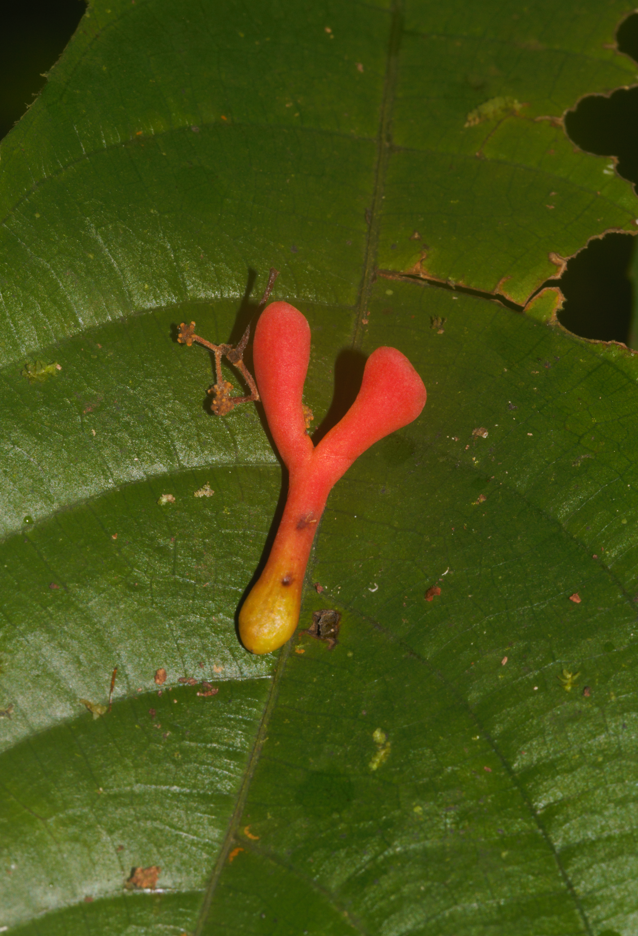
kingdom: Plantae
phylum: Tracheophyta
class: Magnoliopsida
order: Ericales
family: Marcgraviaceae
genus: Souroubea
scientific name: Souroubea guianensis
